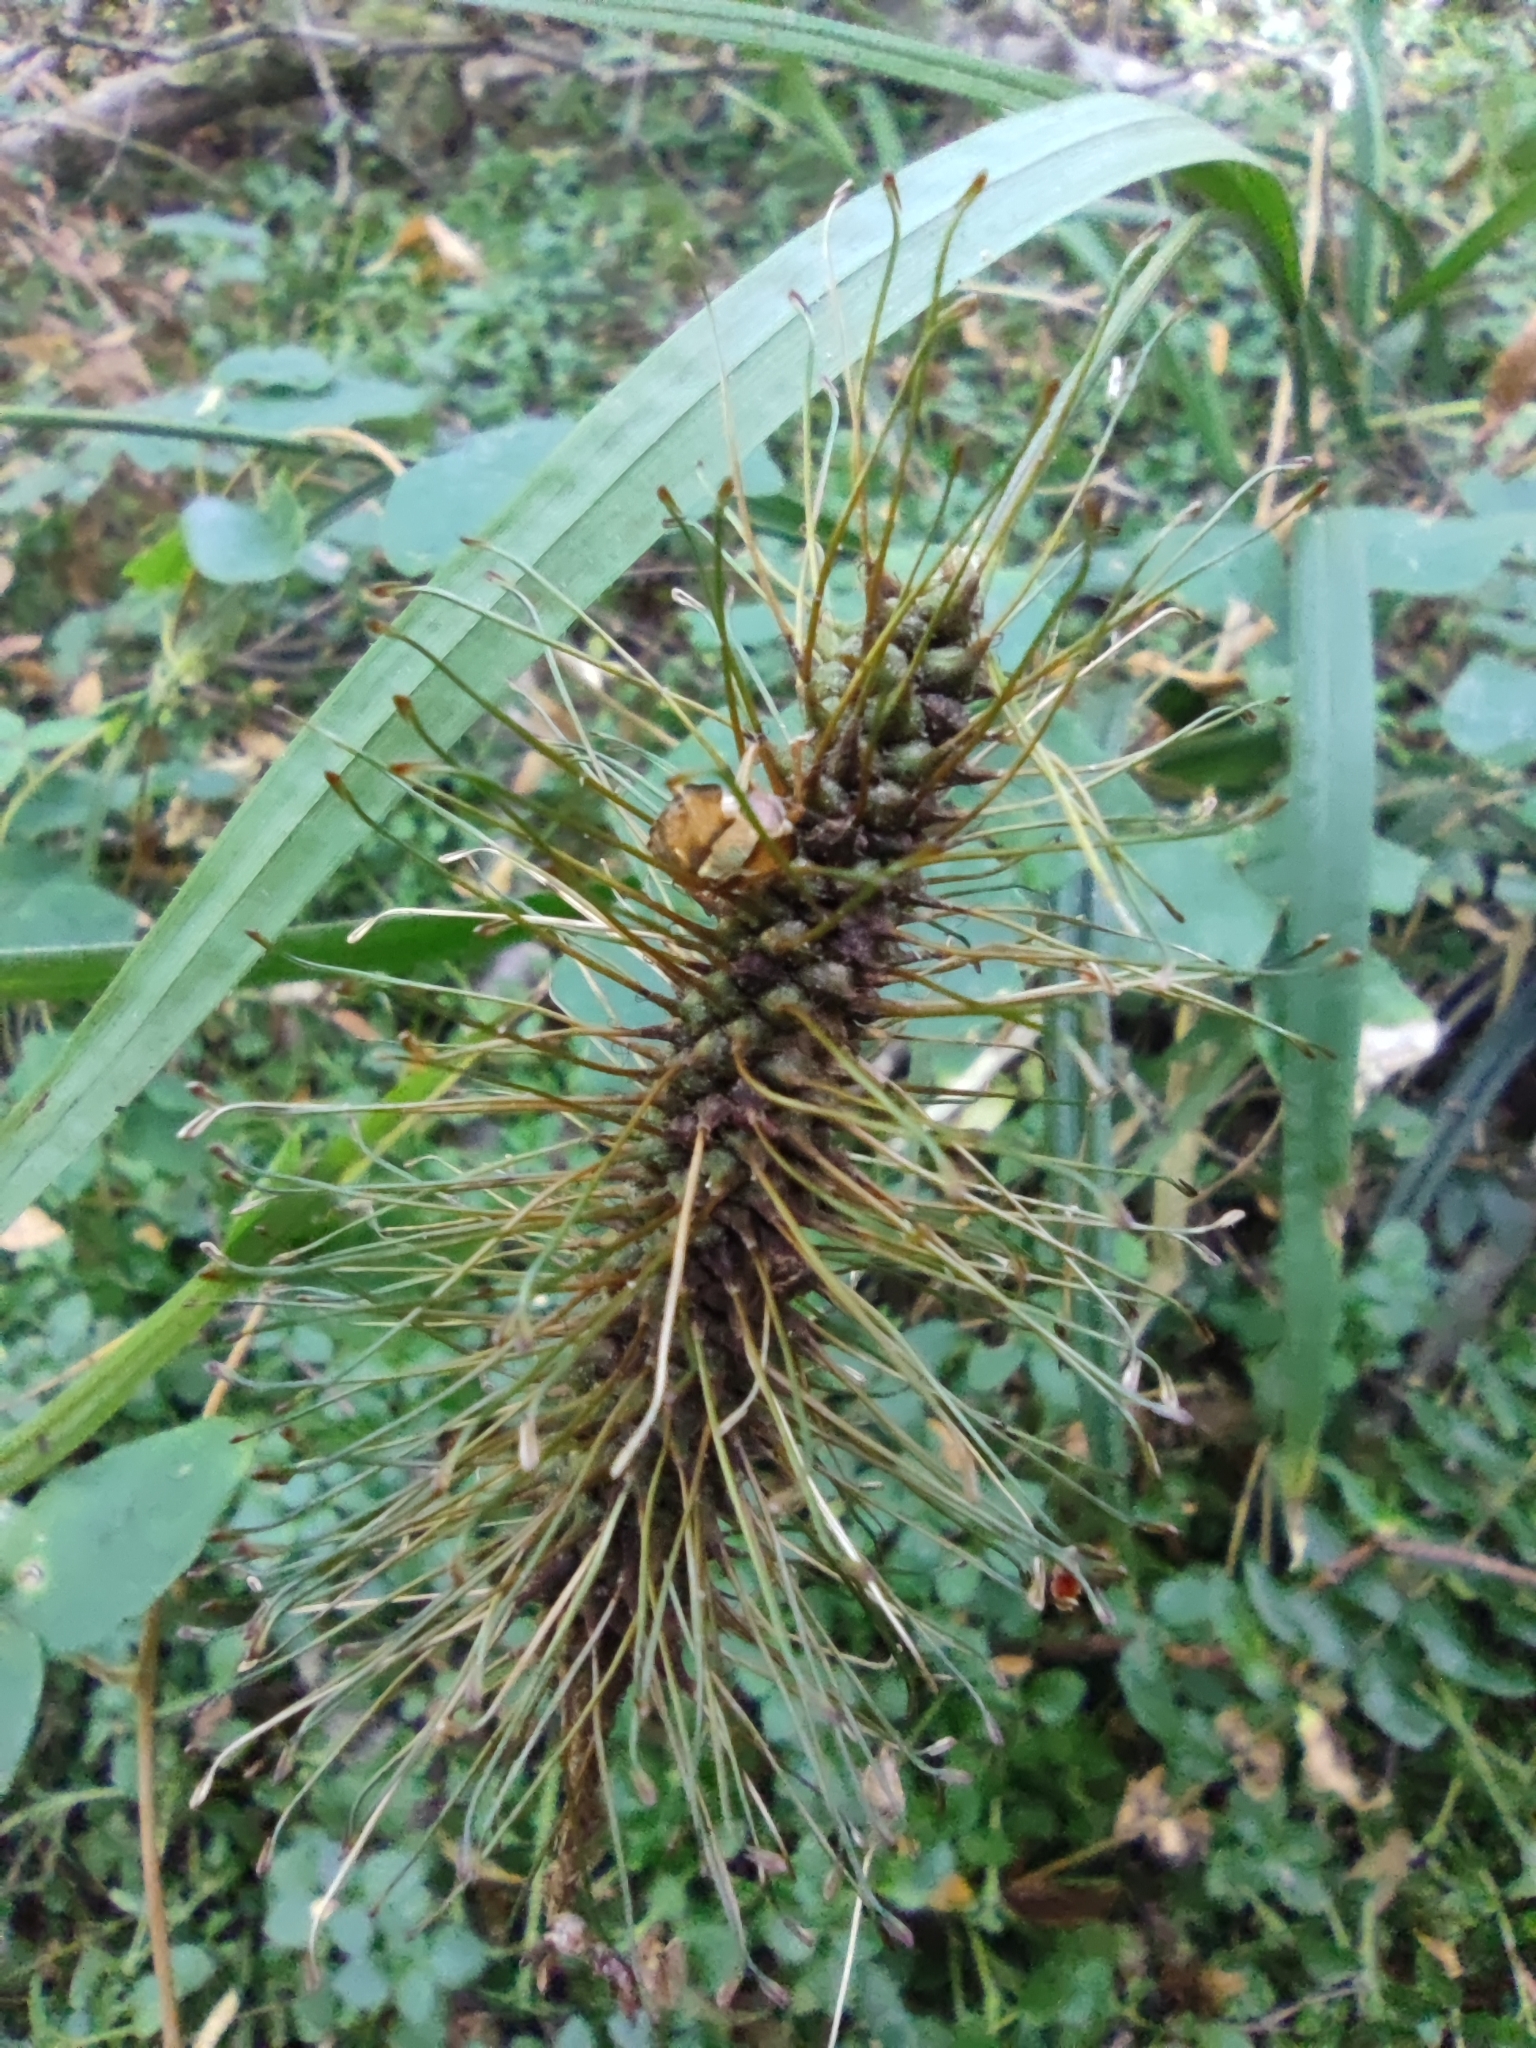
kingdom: Plantae
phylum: Tracheophyta
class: Liliopsida
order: Poales
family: Cyperaceae
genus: Carex
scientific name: Carex erinacea
